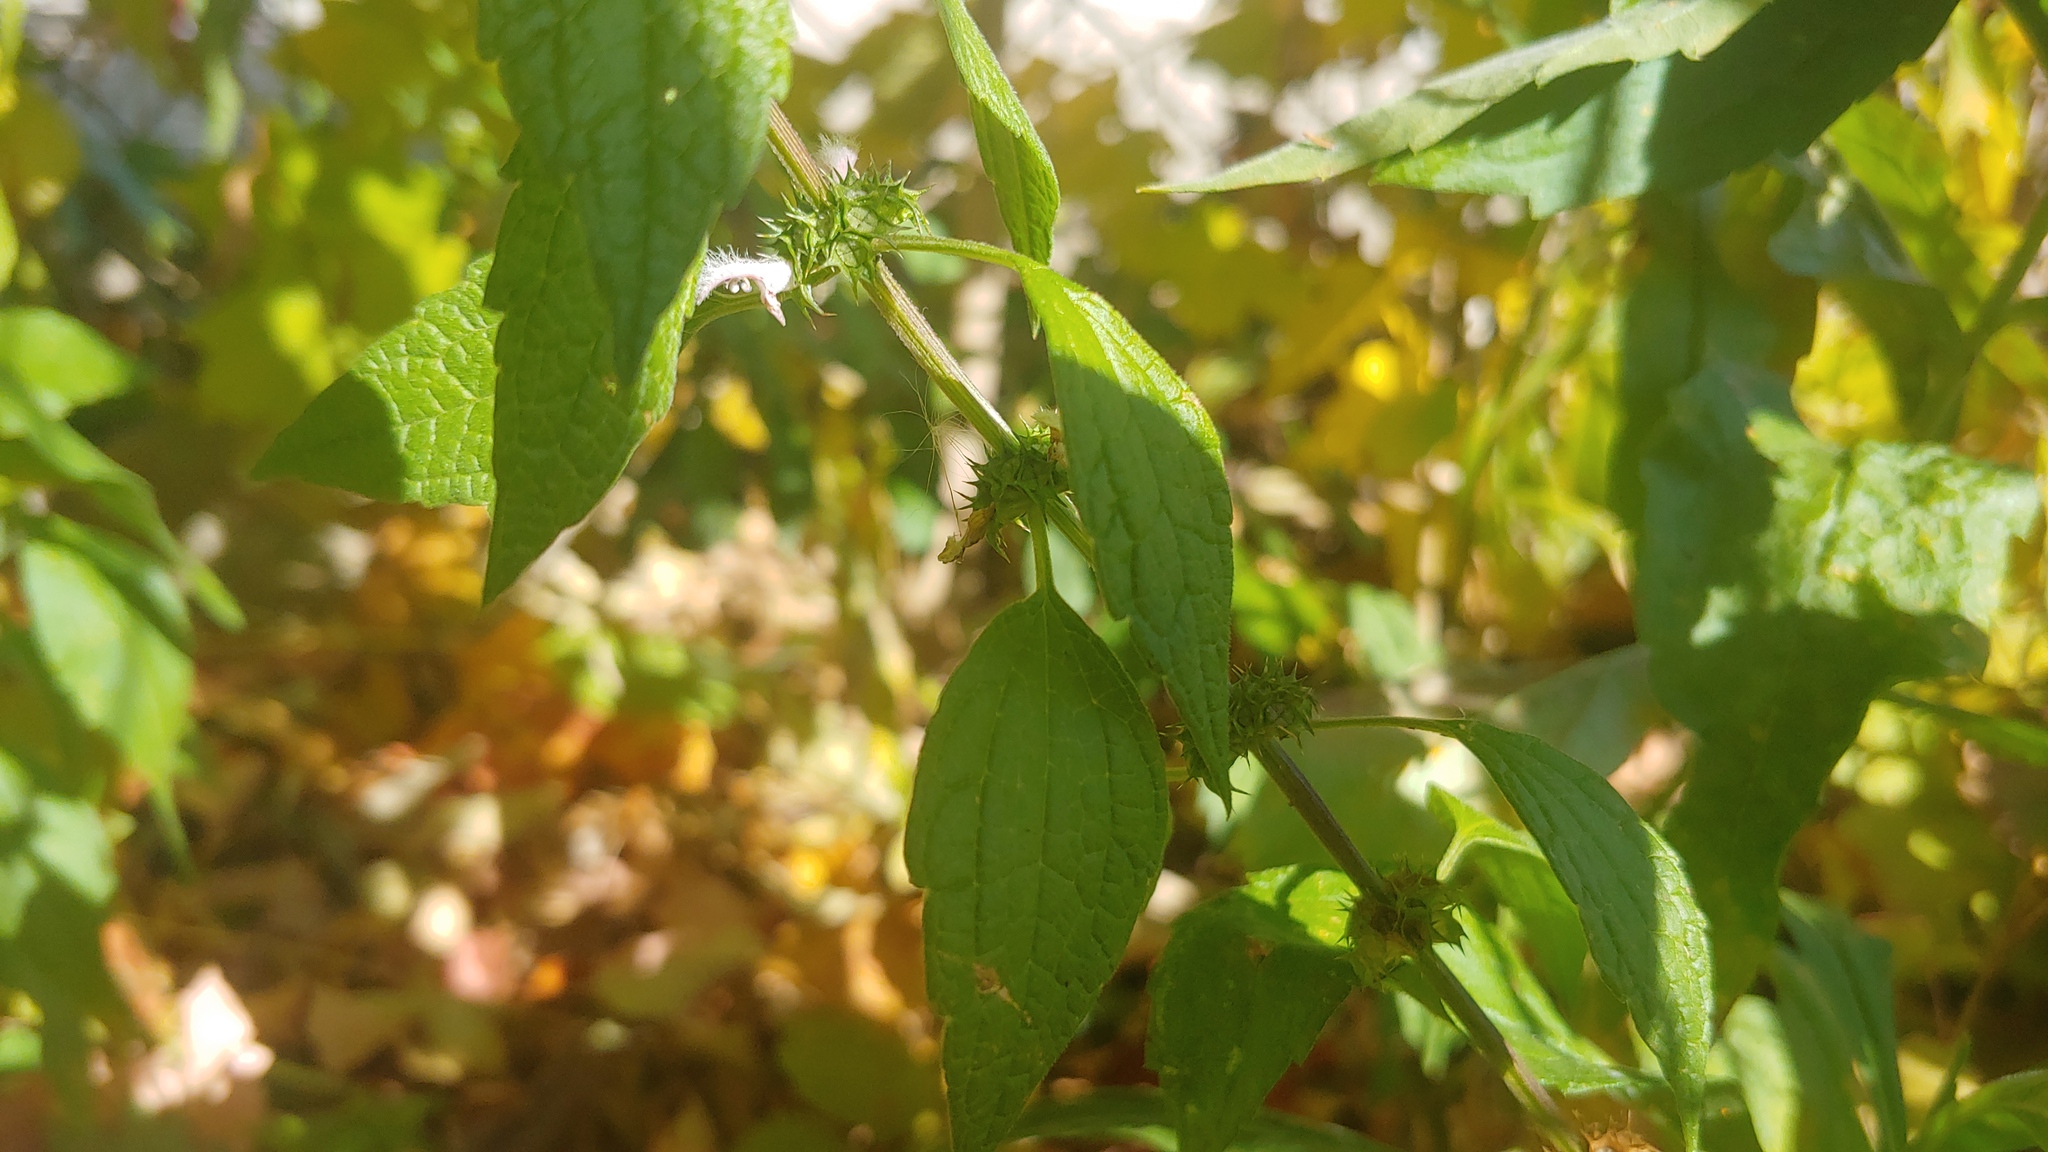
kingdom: Plantae
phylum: Tracheophyta
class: Magnoliopsida
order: Lamiales
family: Lamiaceae
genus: Leonurus
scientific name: Leonurus cardiaca
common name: Motherwort
